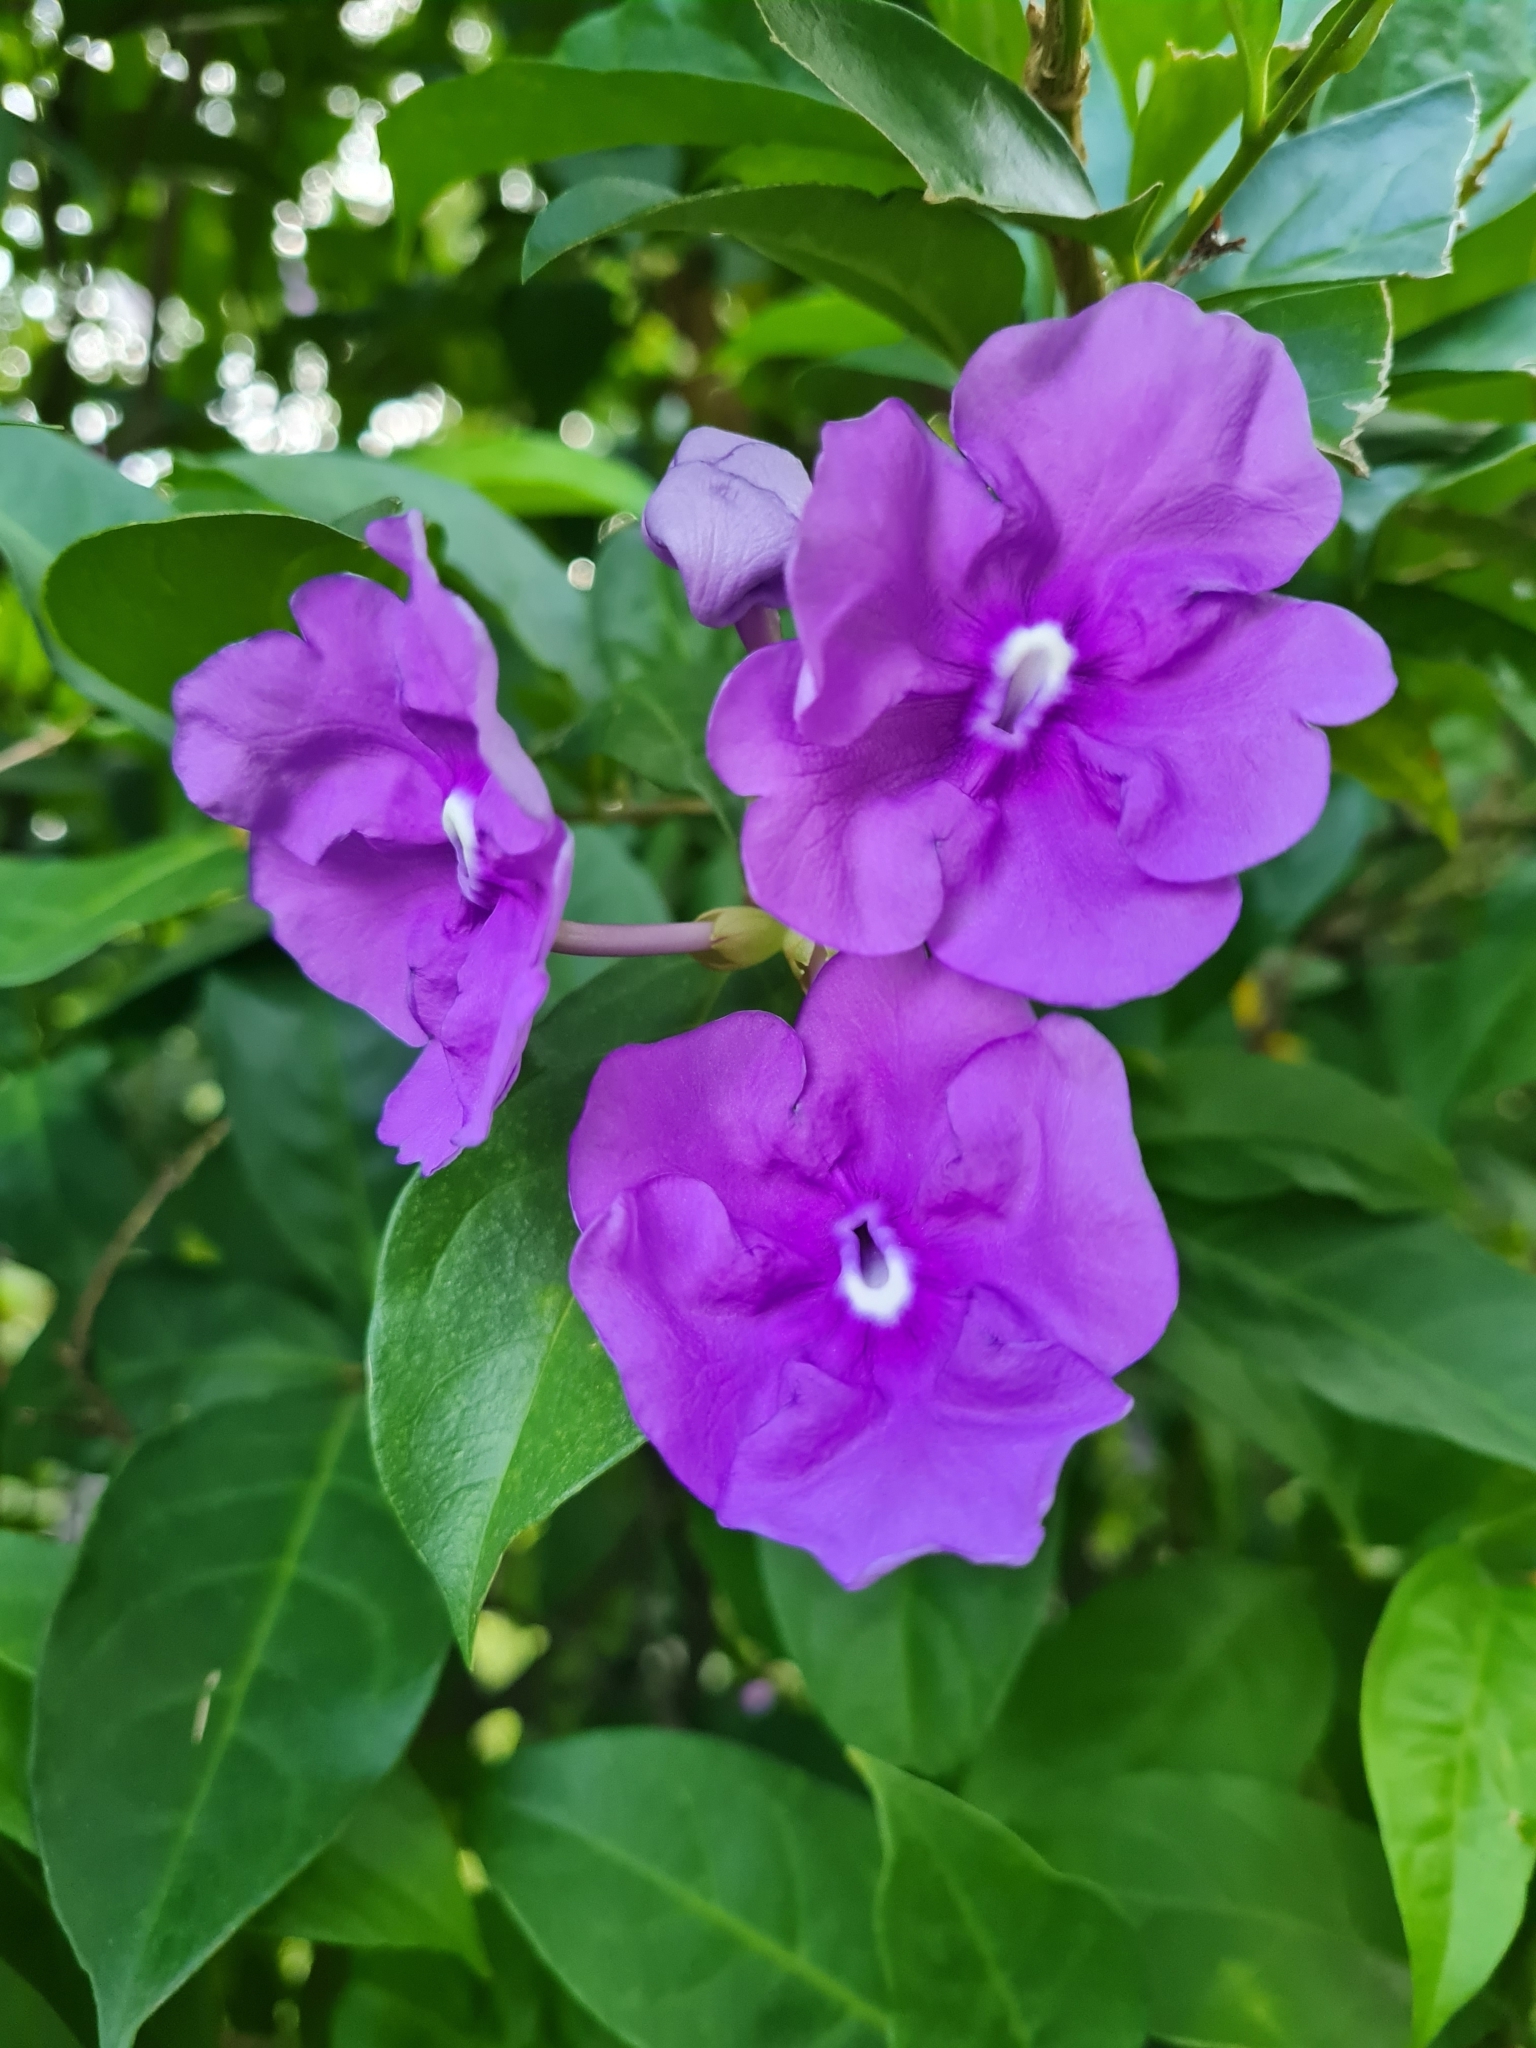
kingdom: Plantae
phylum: Tracheophyta
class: Magnoliopsida
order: Solanales
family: Solanaceae
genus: Brunfelsia
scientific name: Brunfelsia pauciflora
